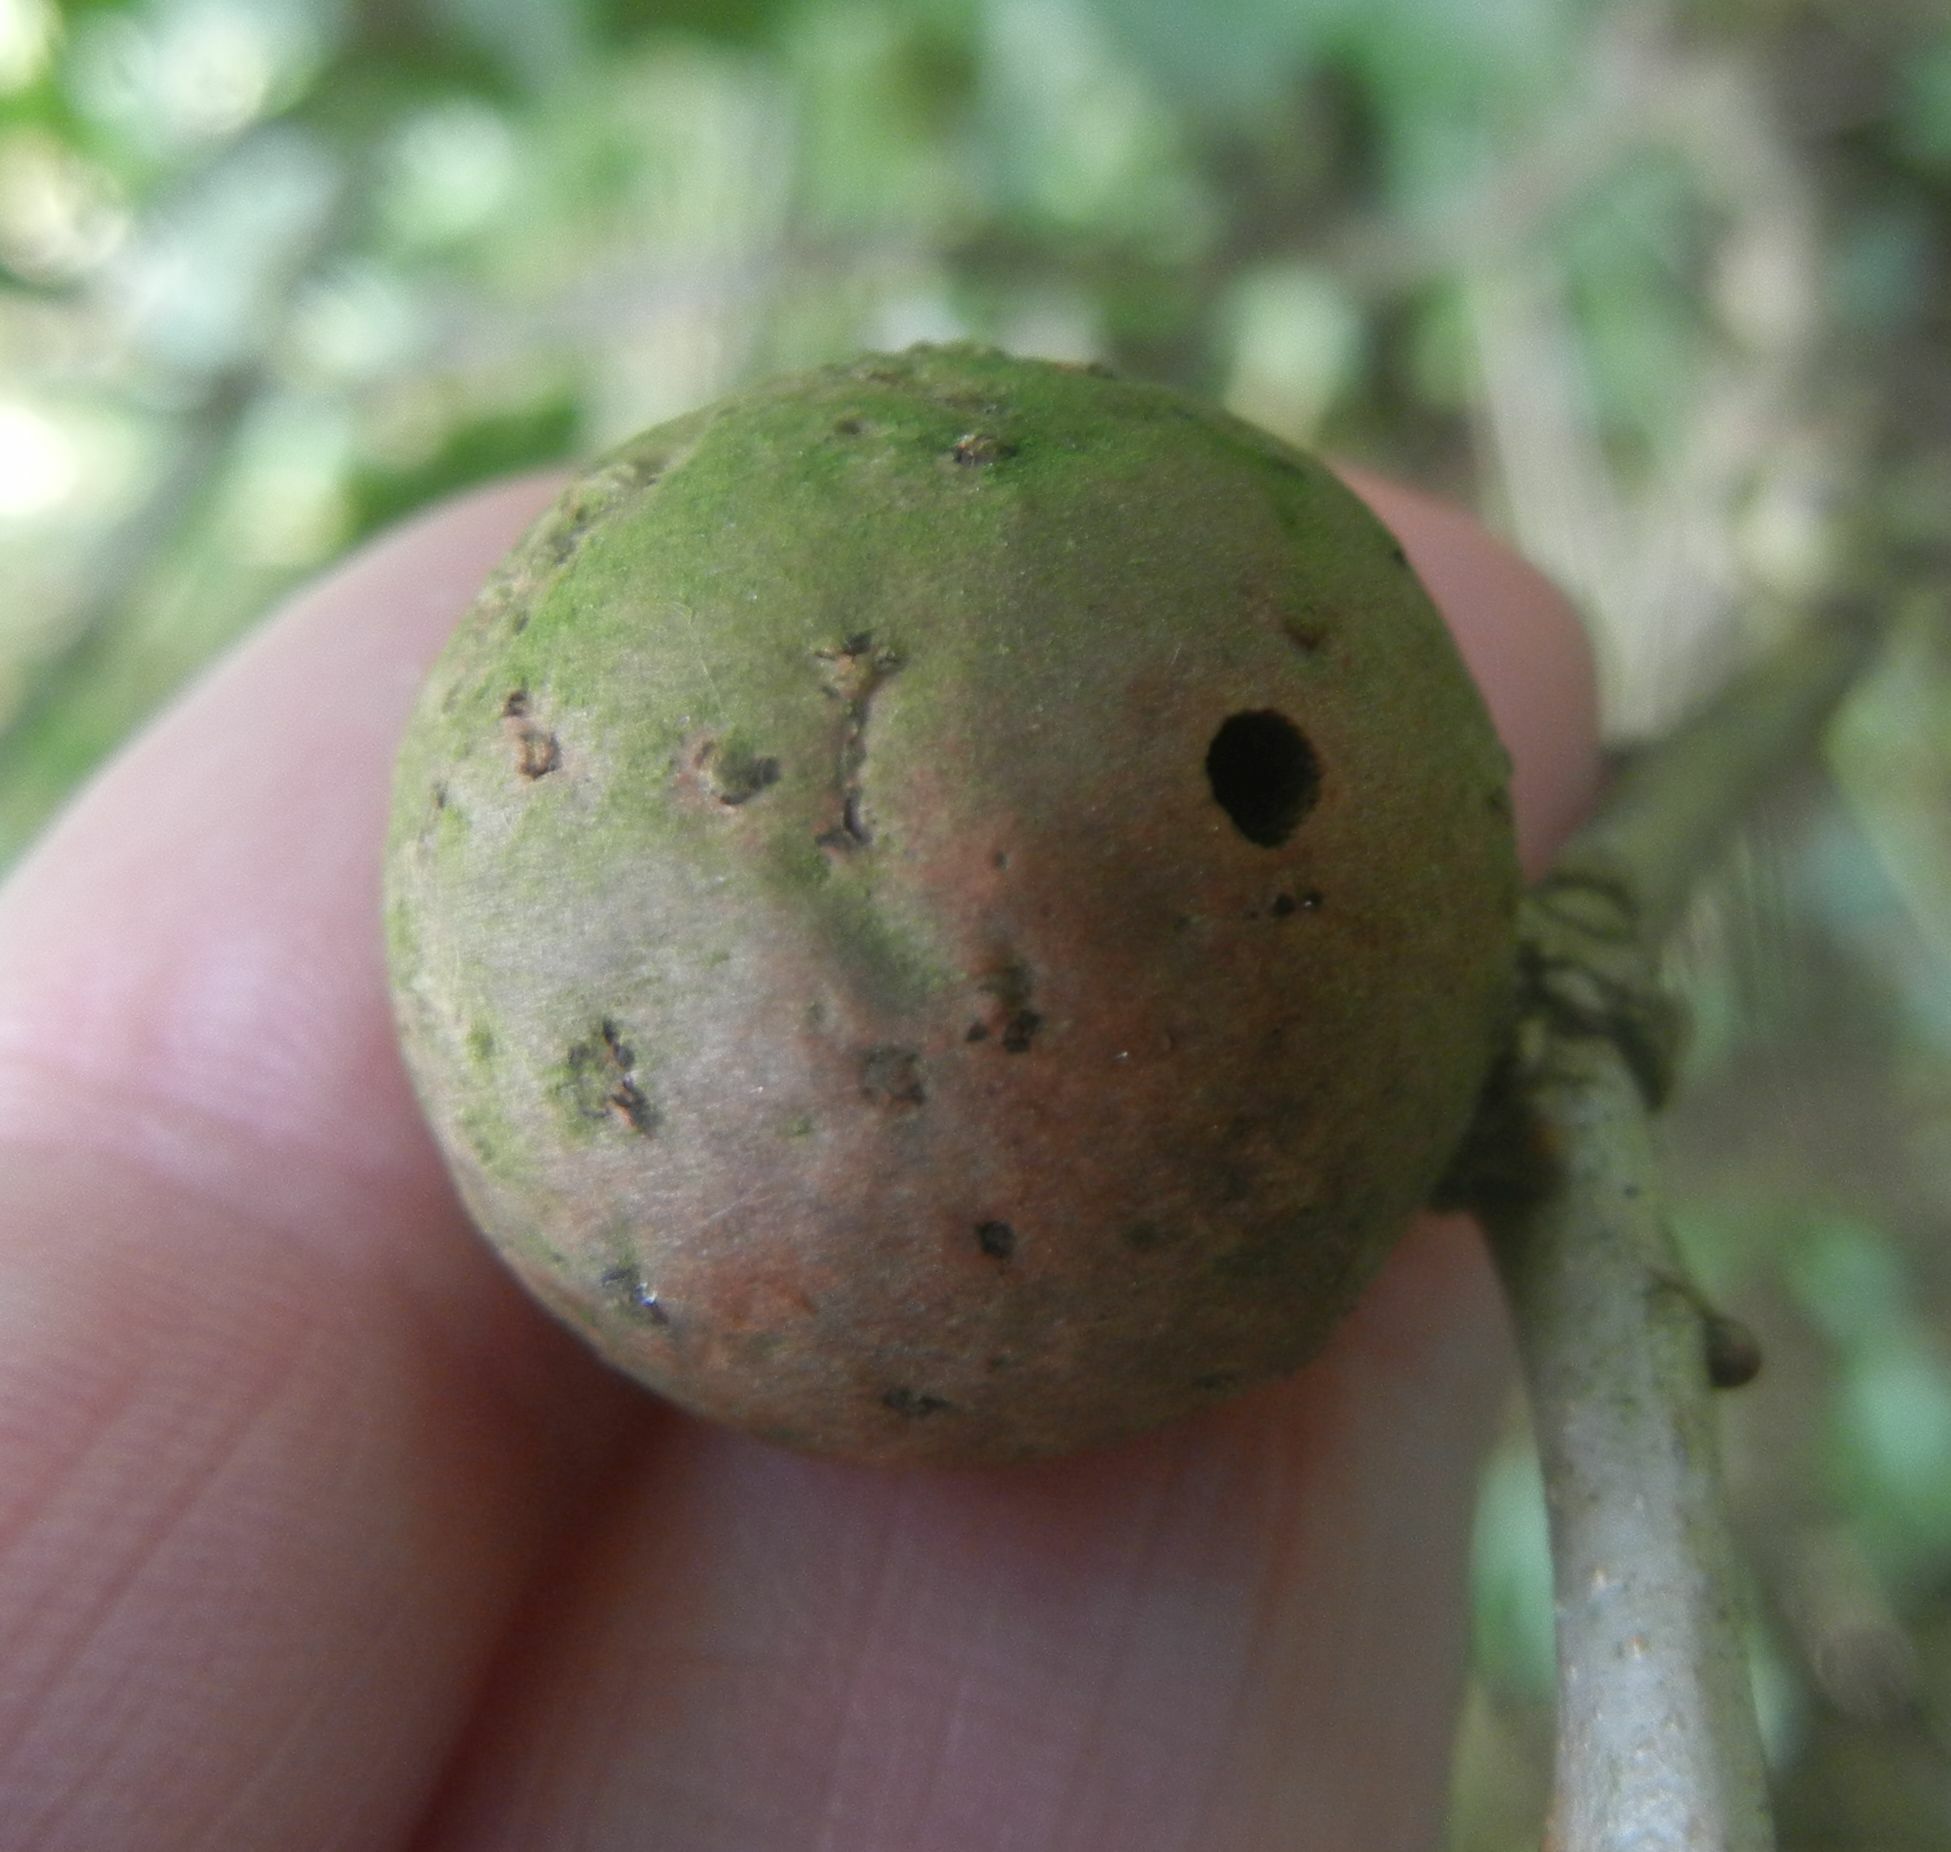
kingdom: Animalia
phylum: Arthropoda
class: Insecta
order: Hymenoptera
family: Cynipidae
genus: Andricus
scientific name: Andricus kollari
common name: Marble gall
